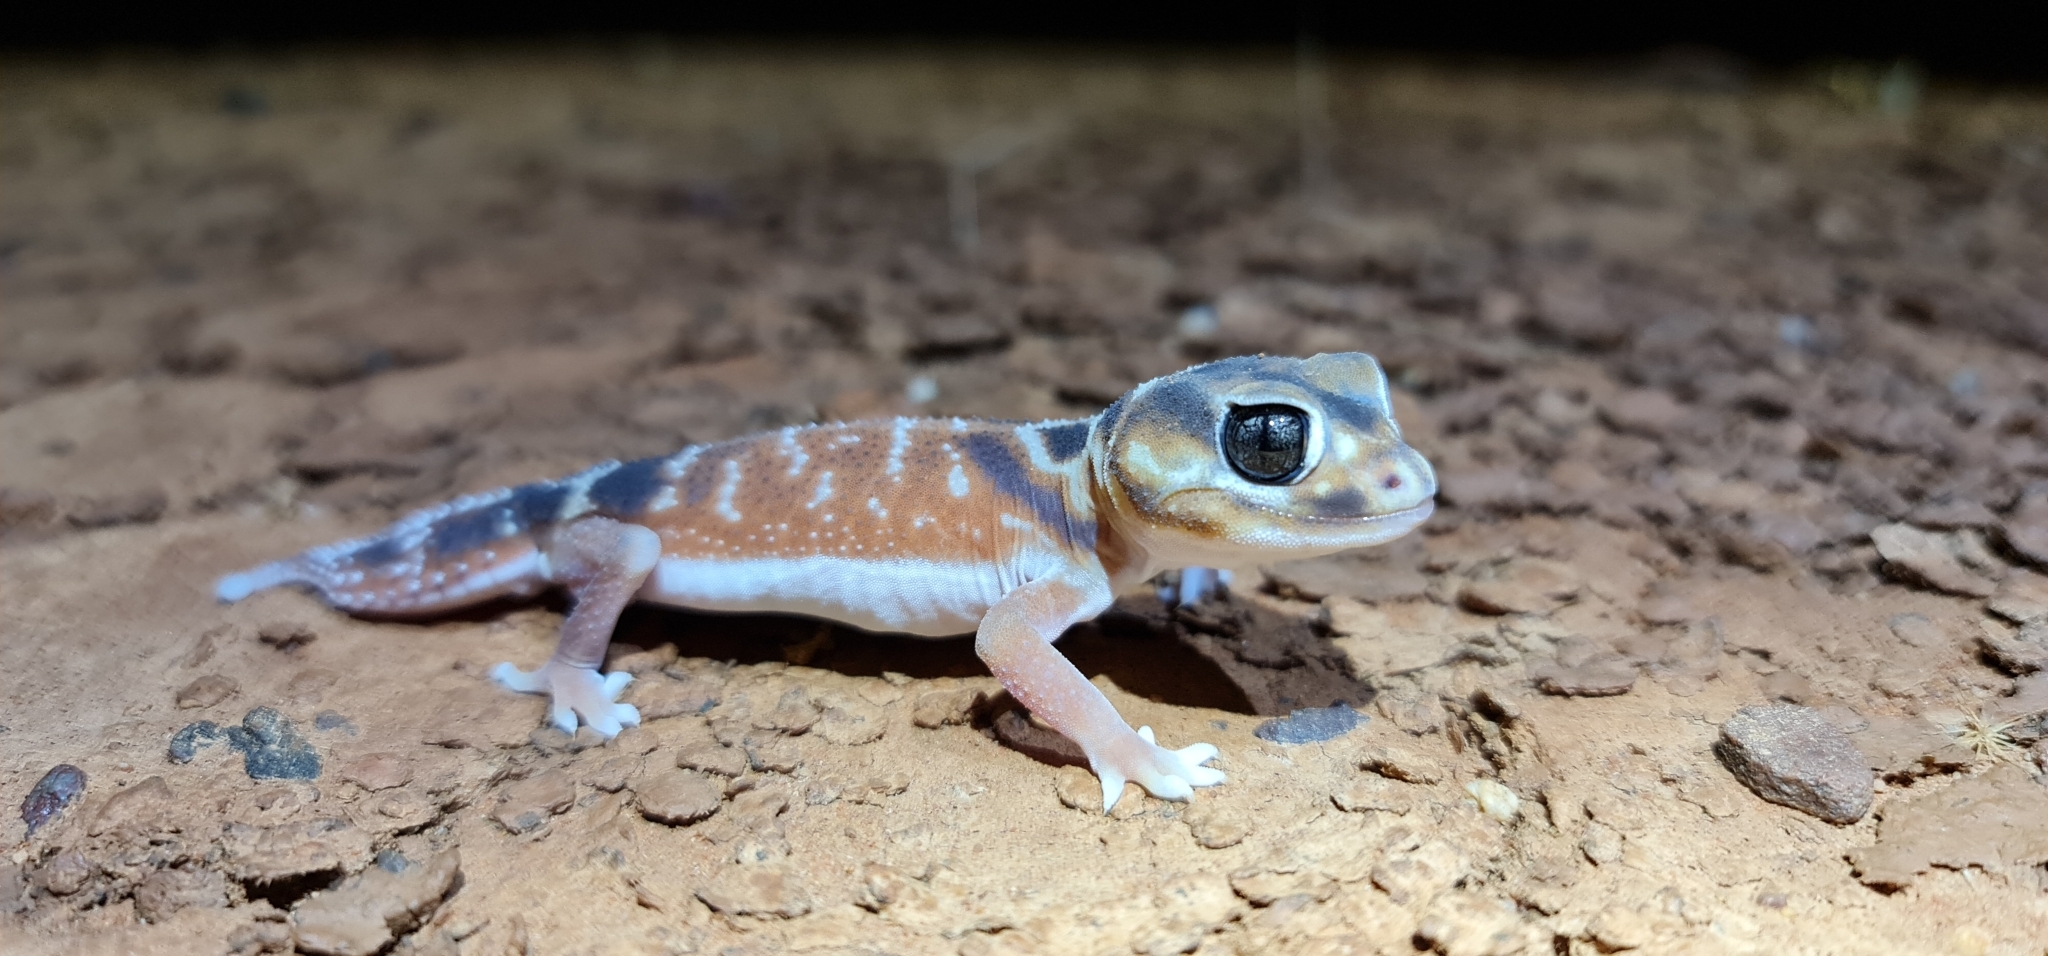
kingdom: Animalia
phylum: Chordata
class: Squamata
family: Carphodactylidae
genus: Nephrurus
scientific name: Nephrurus levis
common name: Smooth knob-tailed gecko
